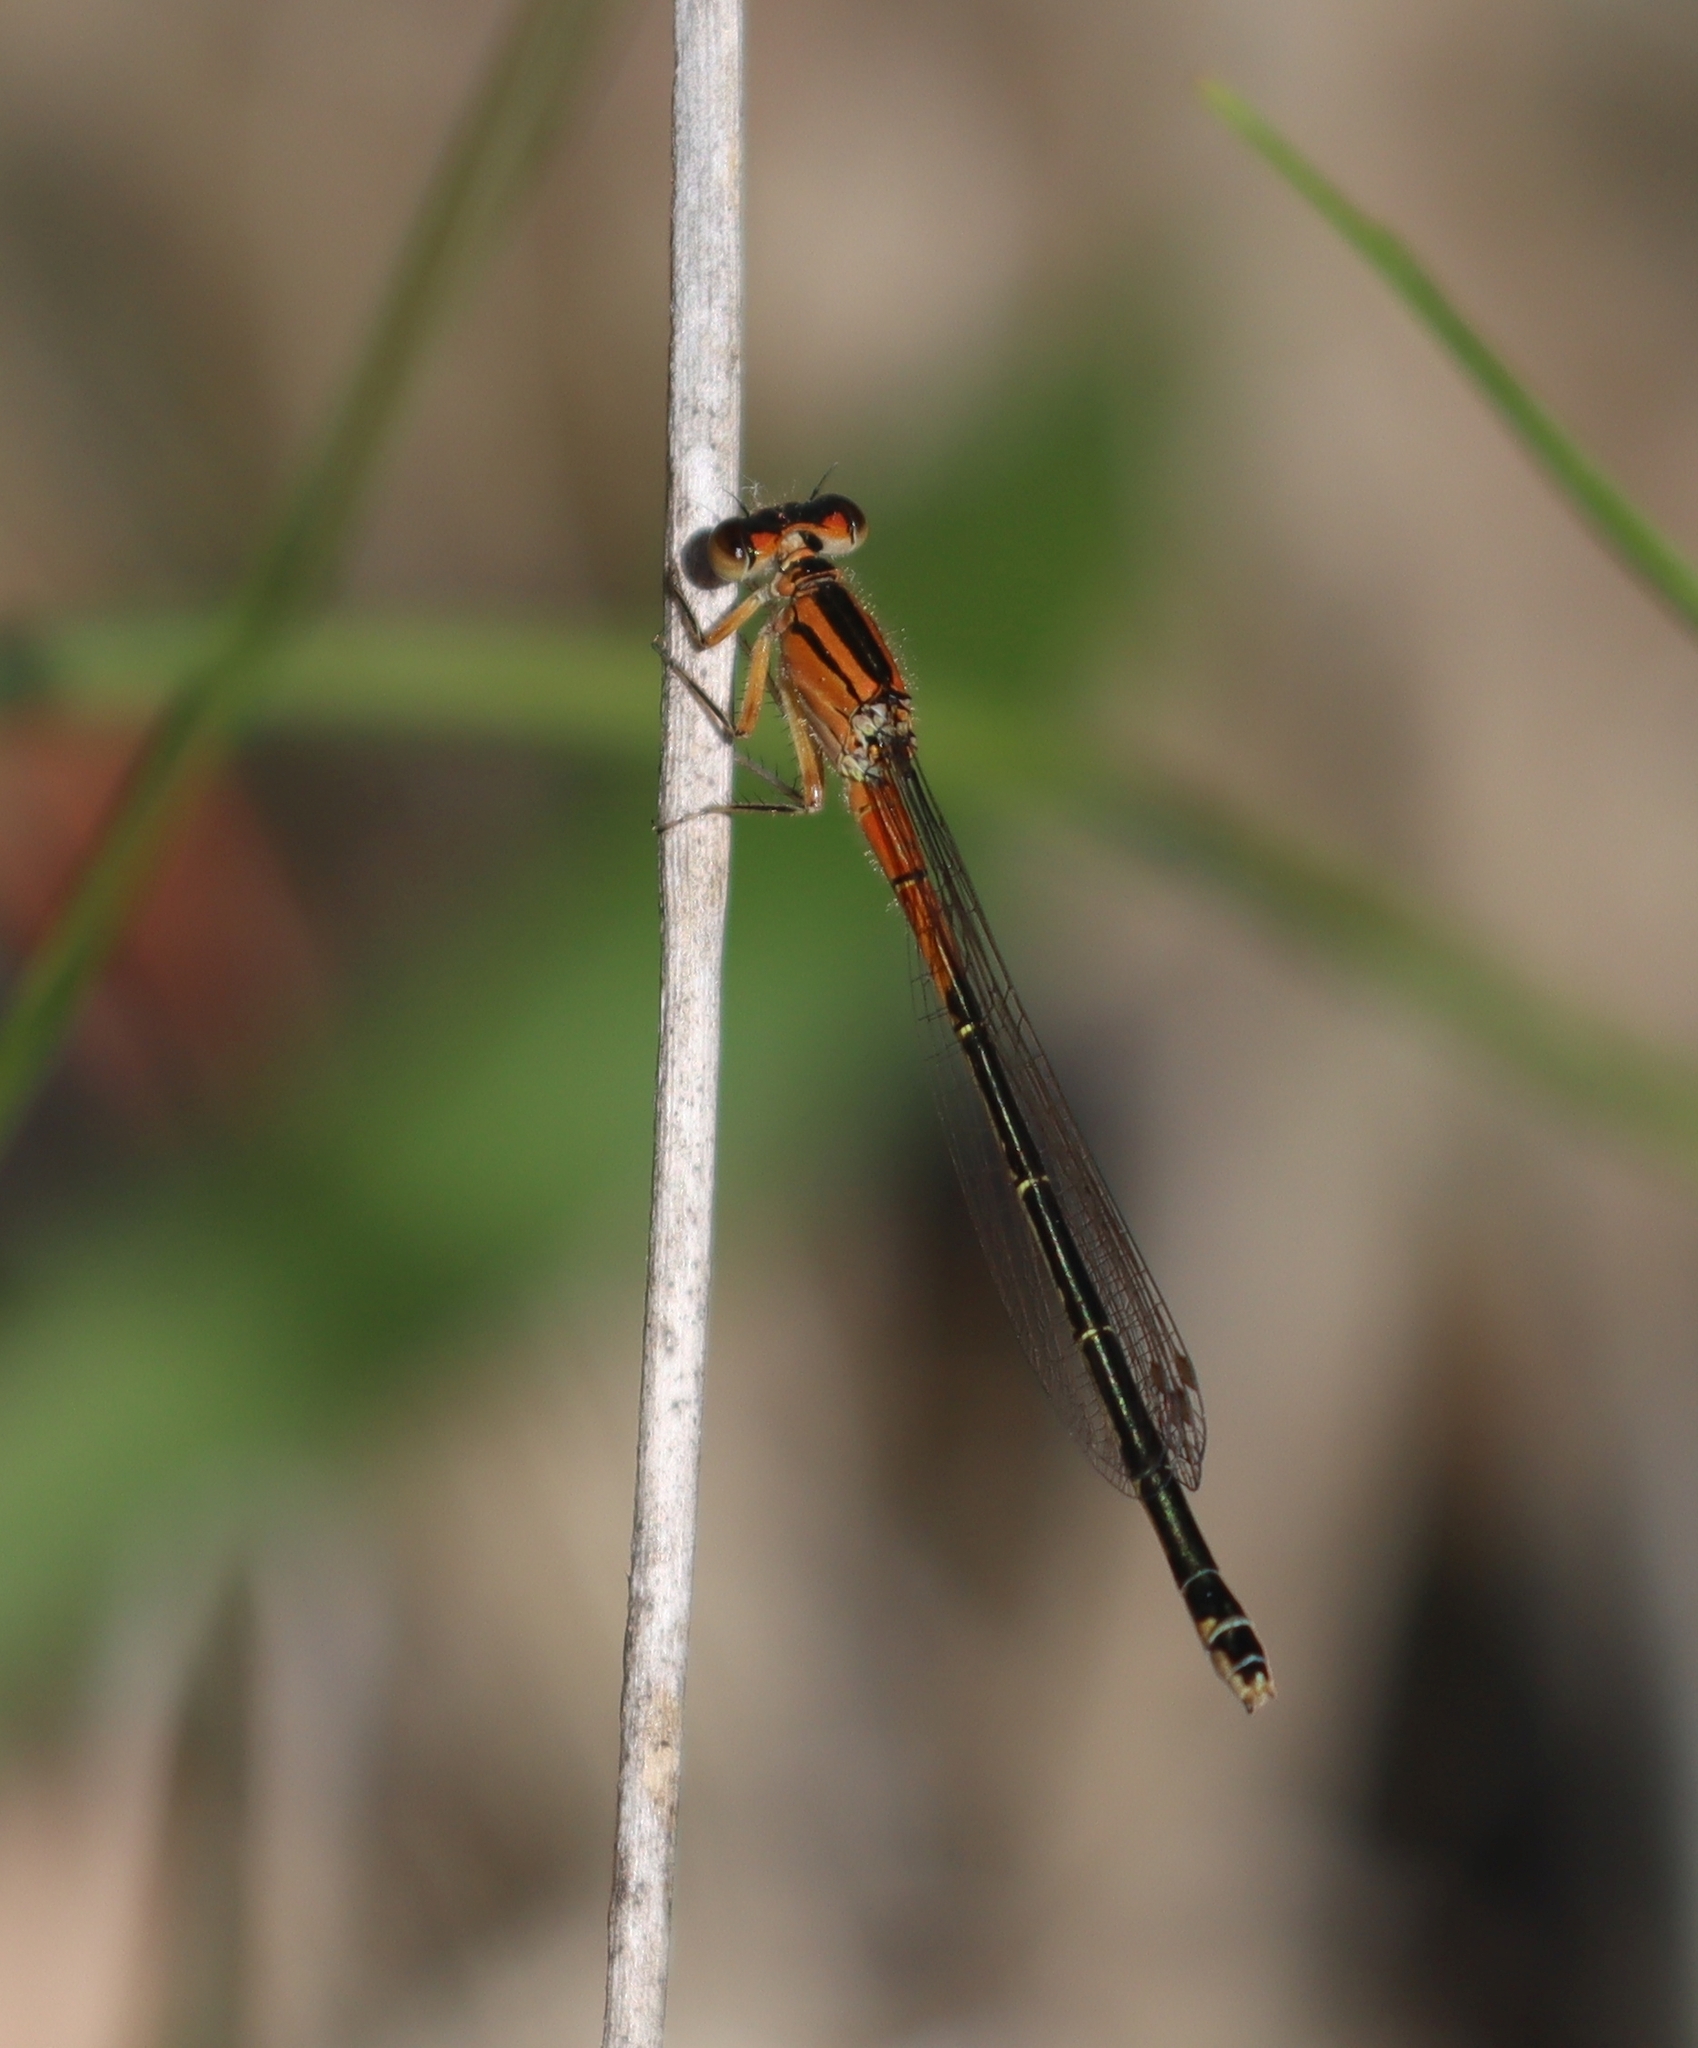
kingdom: Animalia
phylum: Arthropoda
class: Insecta
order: Odonata
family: Coenagrionidae
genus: Ischnura
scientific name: Ischnura verticalis
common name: Eastern forktail
